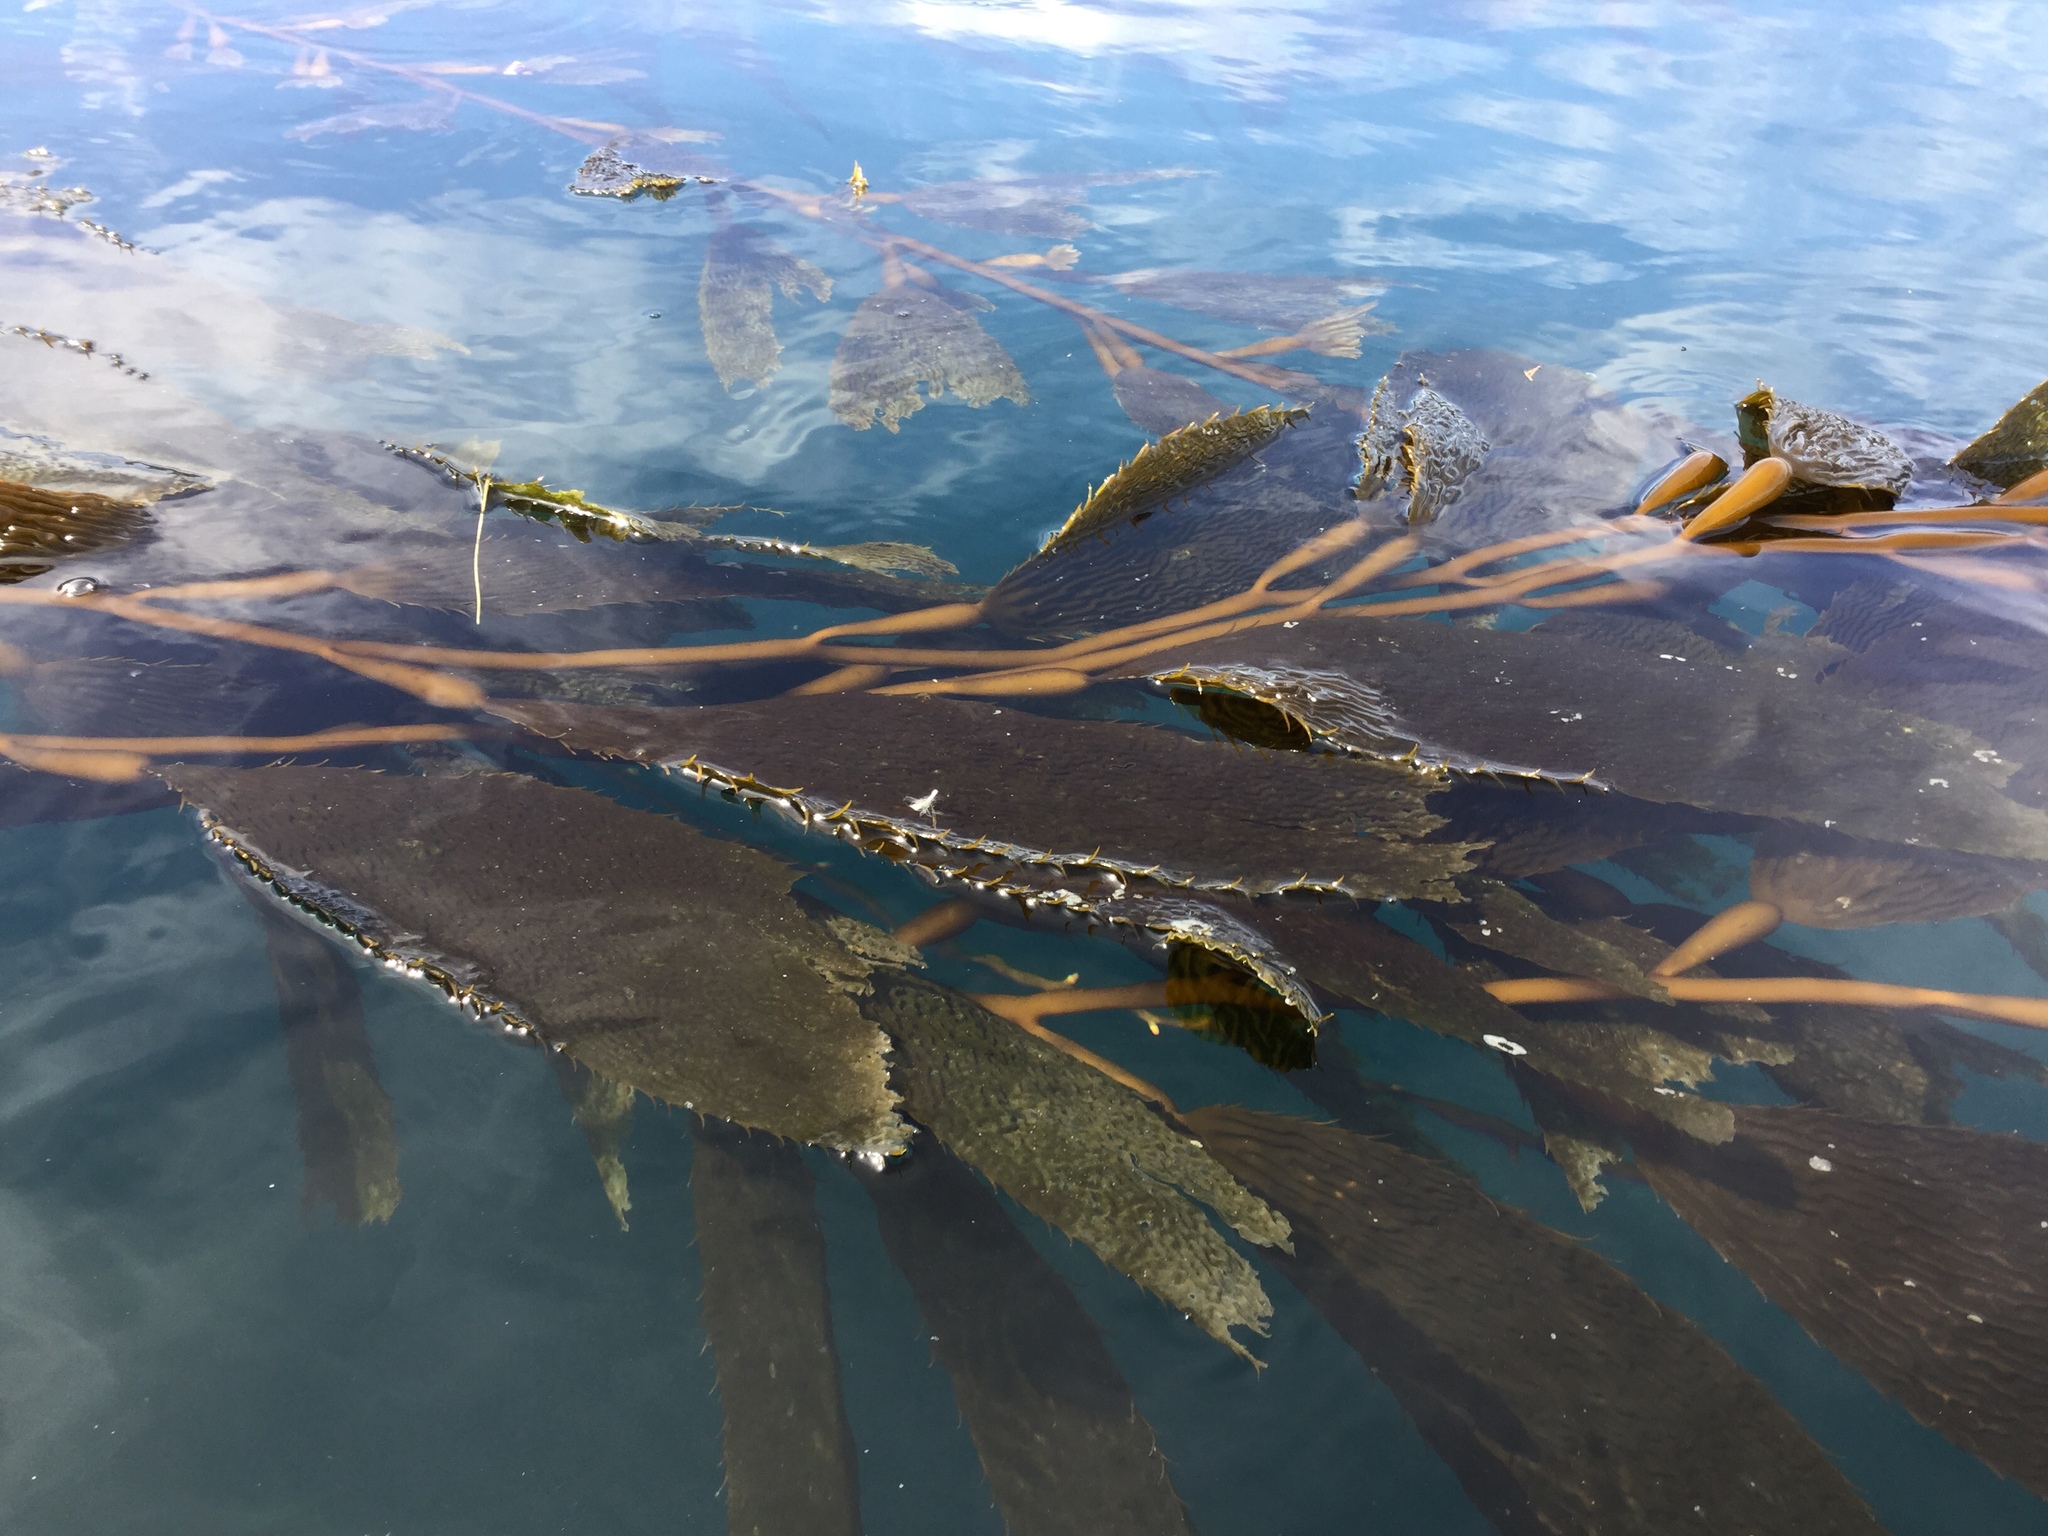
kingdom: Chromista
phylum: Ochrophyta
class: Phaeophyceae
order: Laminariales
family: Laminariaceae
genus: Macrocystis
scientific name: Macrocystis pyrifera
